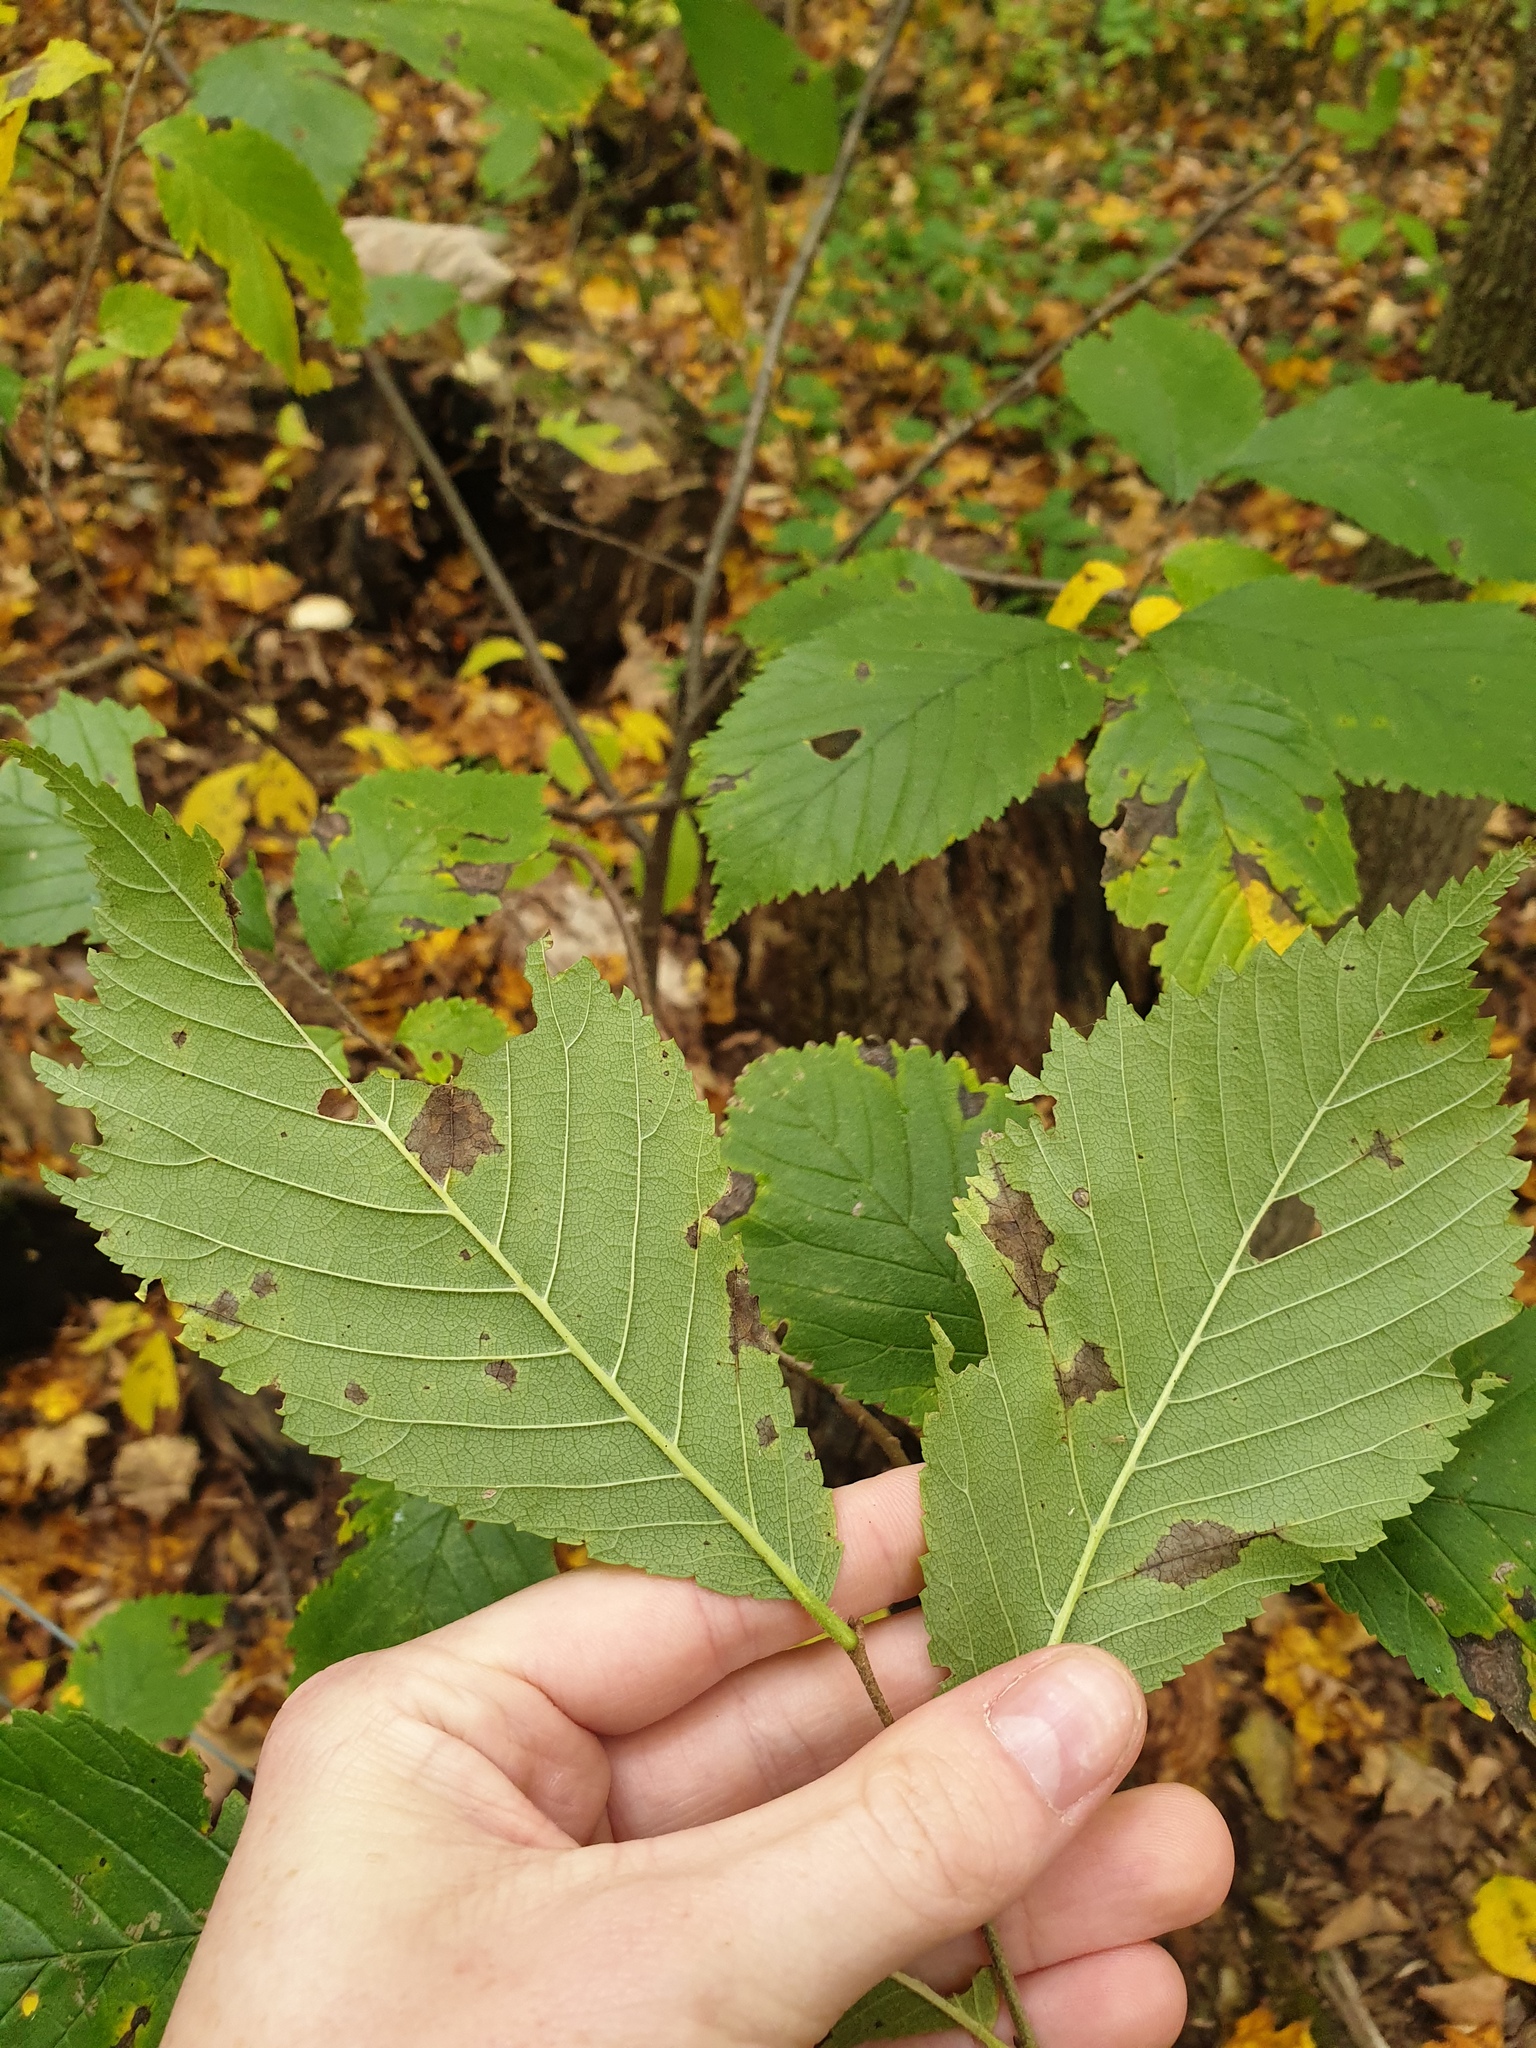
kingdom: Plantae
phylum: Tracheophyta
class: Magnoliopsida
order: Rosales
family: Ulmaceae
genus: Ulmus
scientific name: Ulmus rubra
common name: Slippery elm
